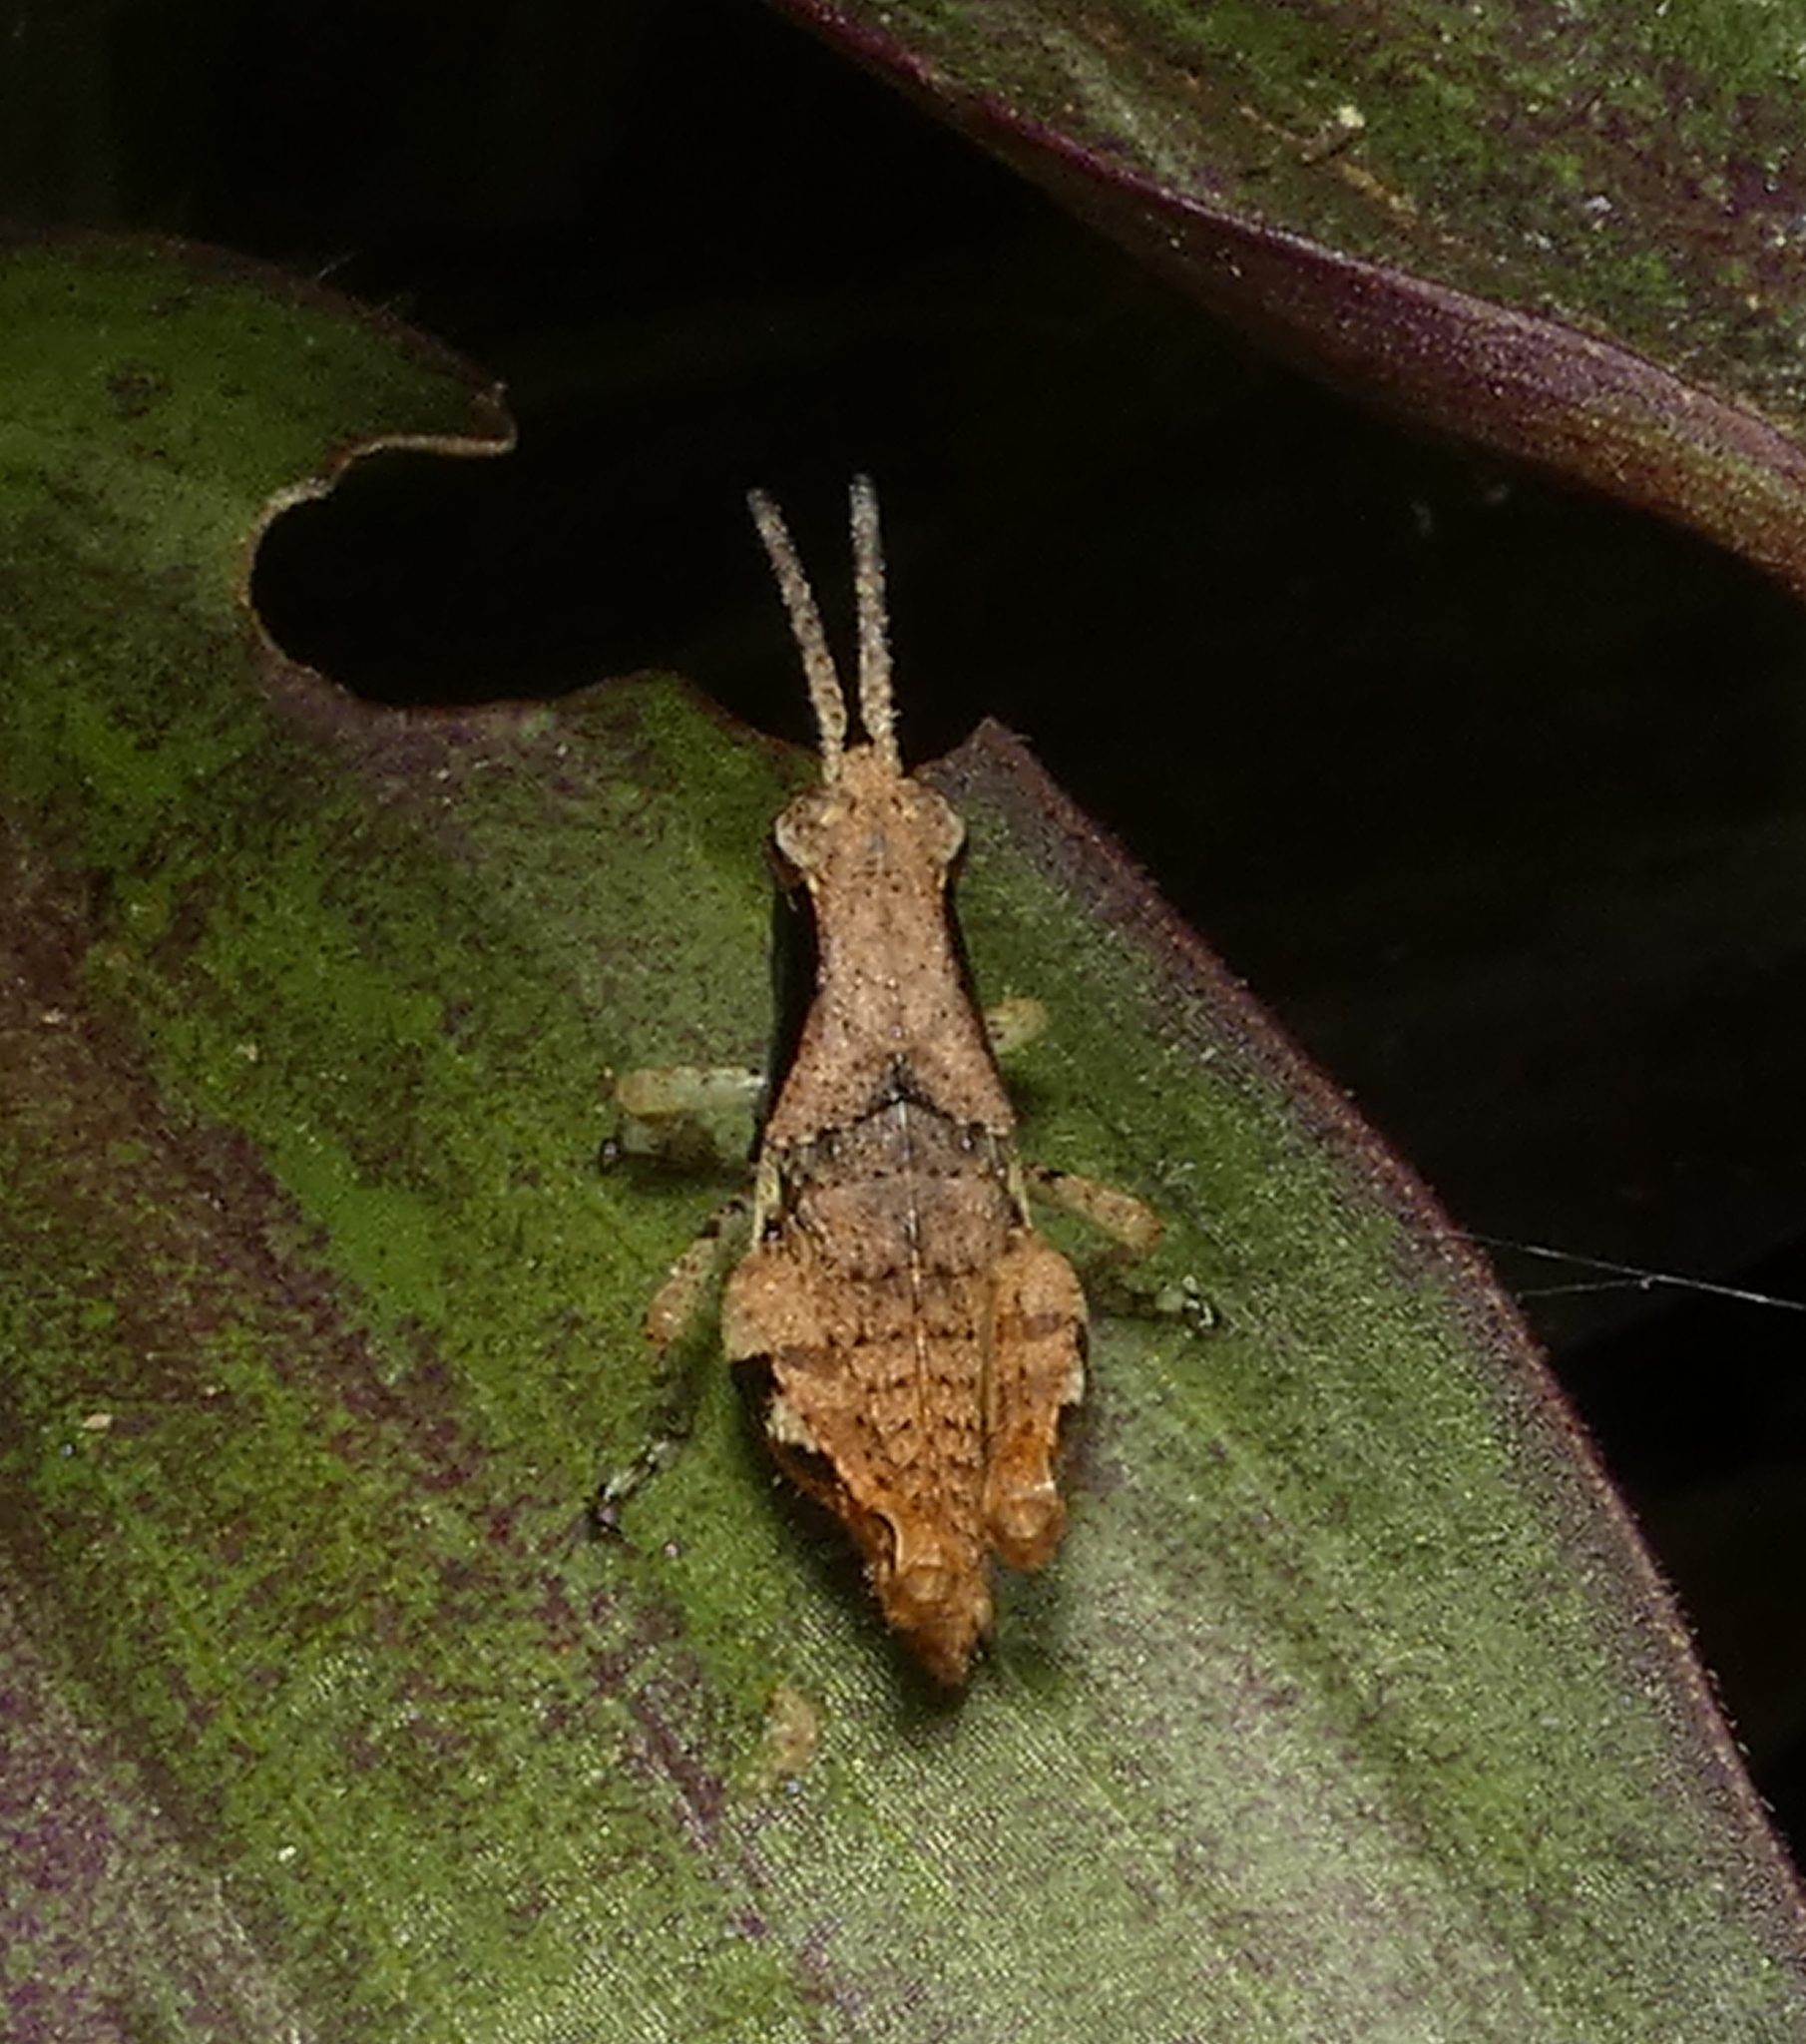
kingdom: Animalia
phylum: Arthropoda
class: Insecta
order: Orthoptera
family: Acrididae
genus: Eujivarus
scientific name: Eujivarus meridionalis
